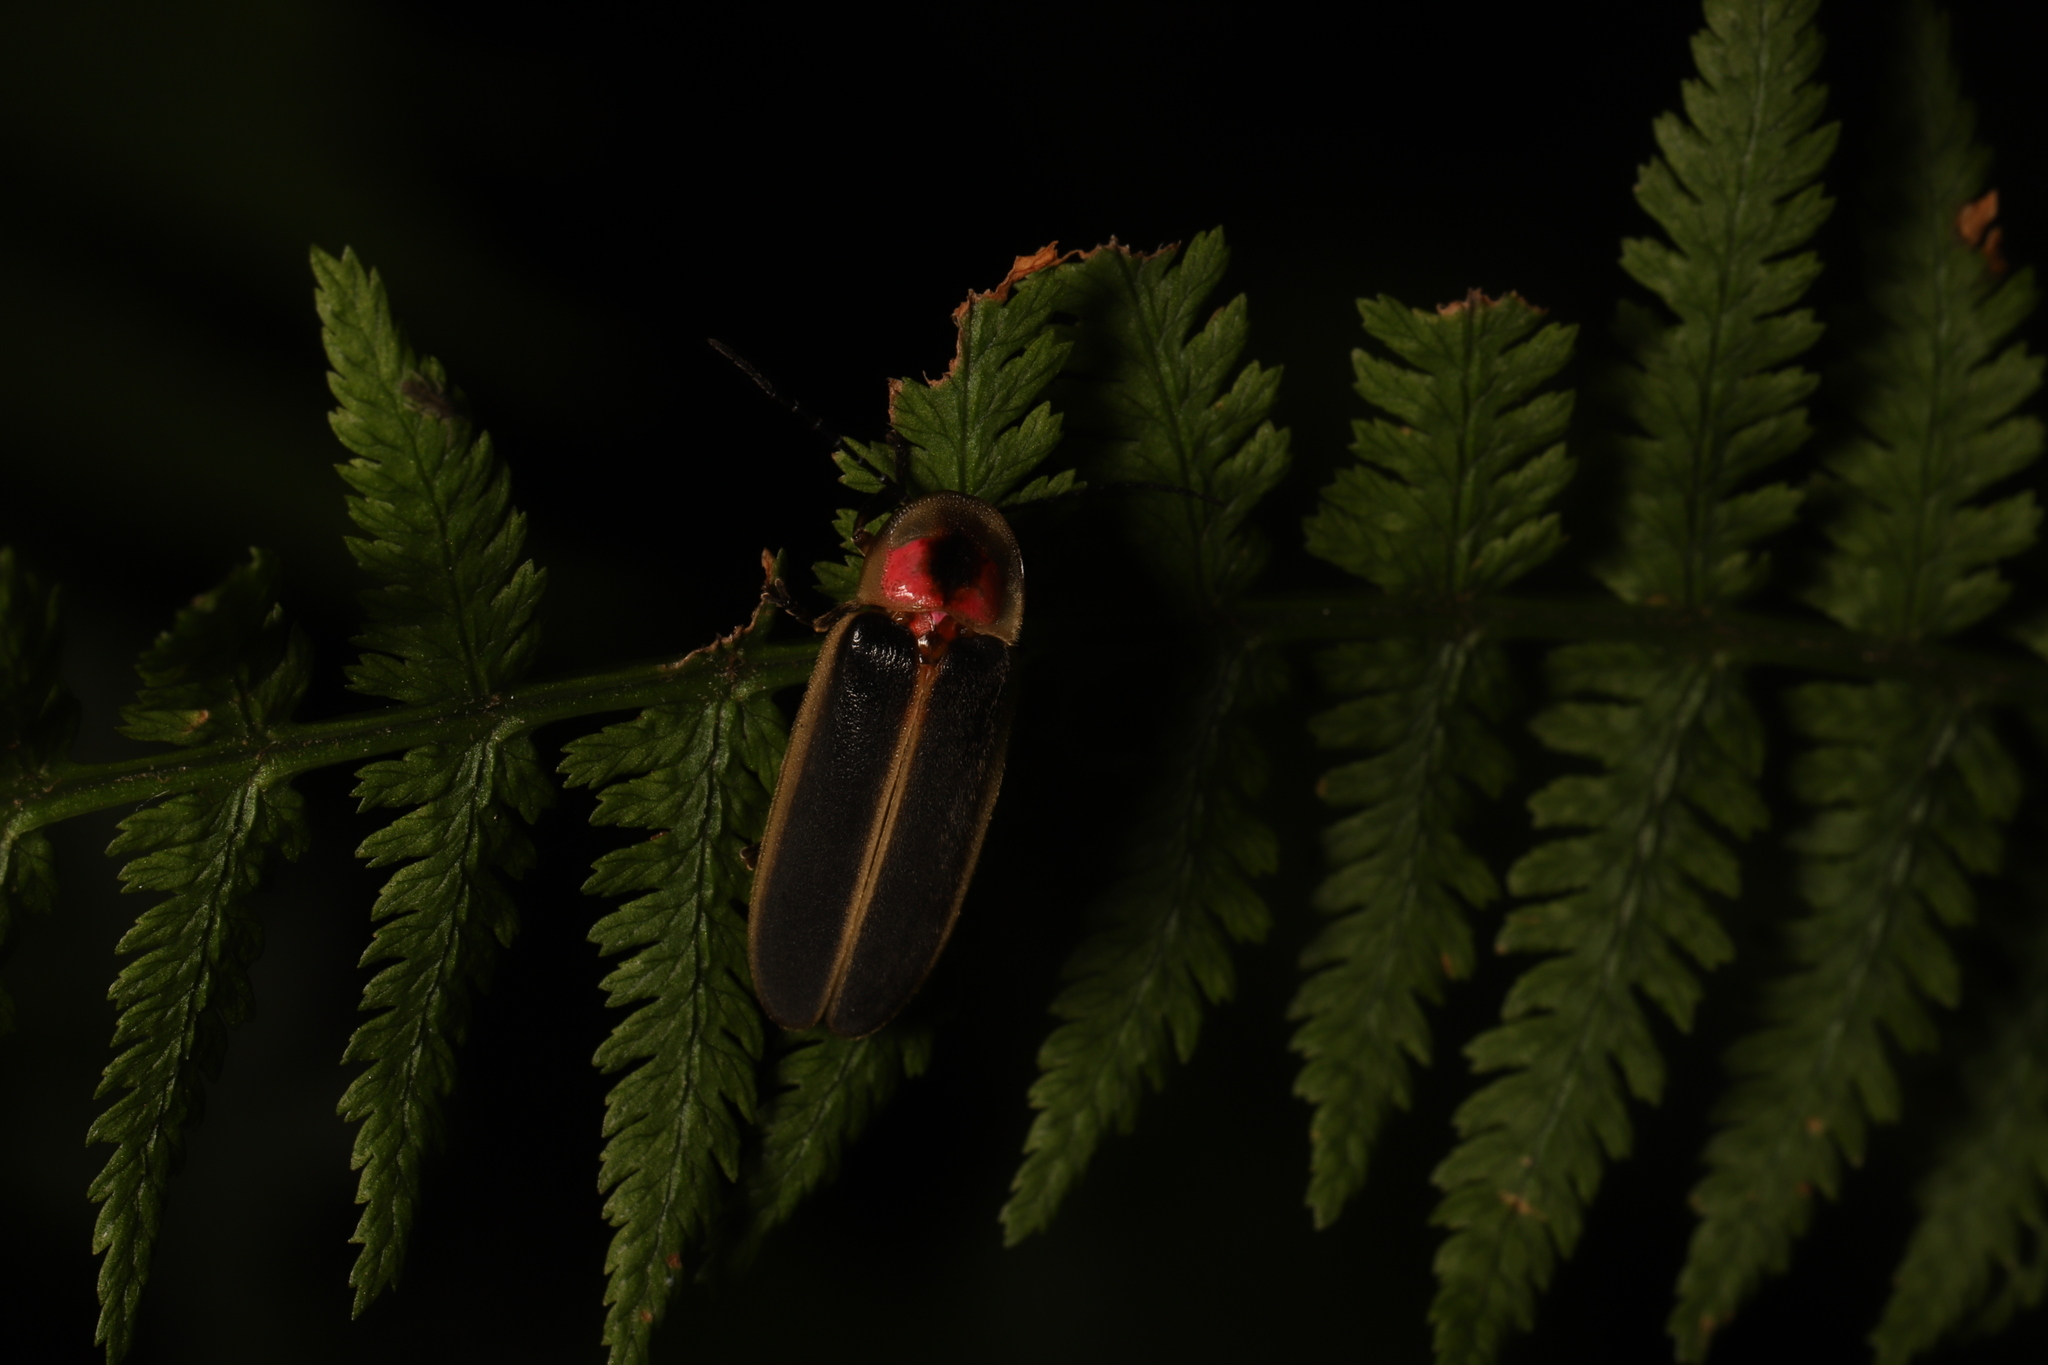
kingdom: Animalia
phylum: Arthropoda
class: Insecta
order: Coleoptera
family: Lampyridae
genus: Photinus
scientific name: Photinus pyralis
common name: Big dipper firefly
